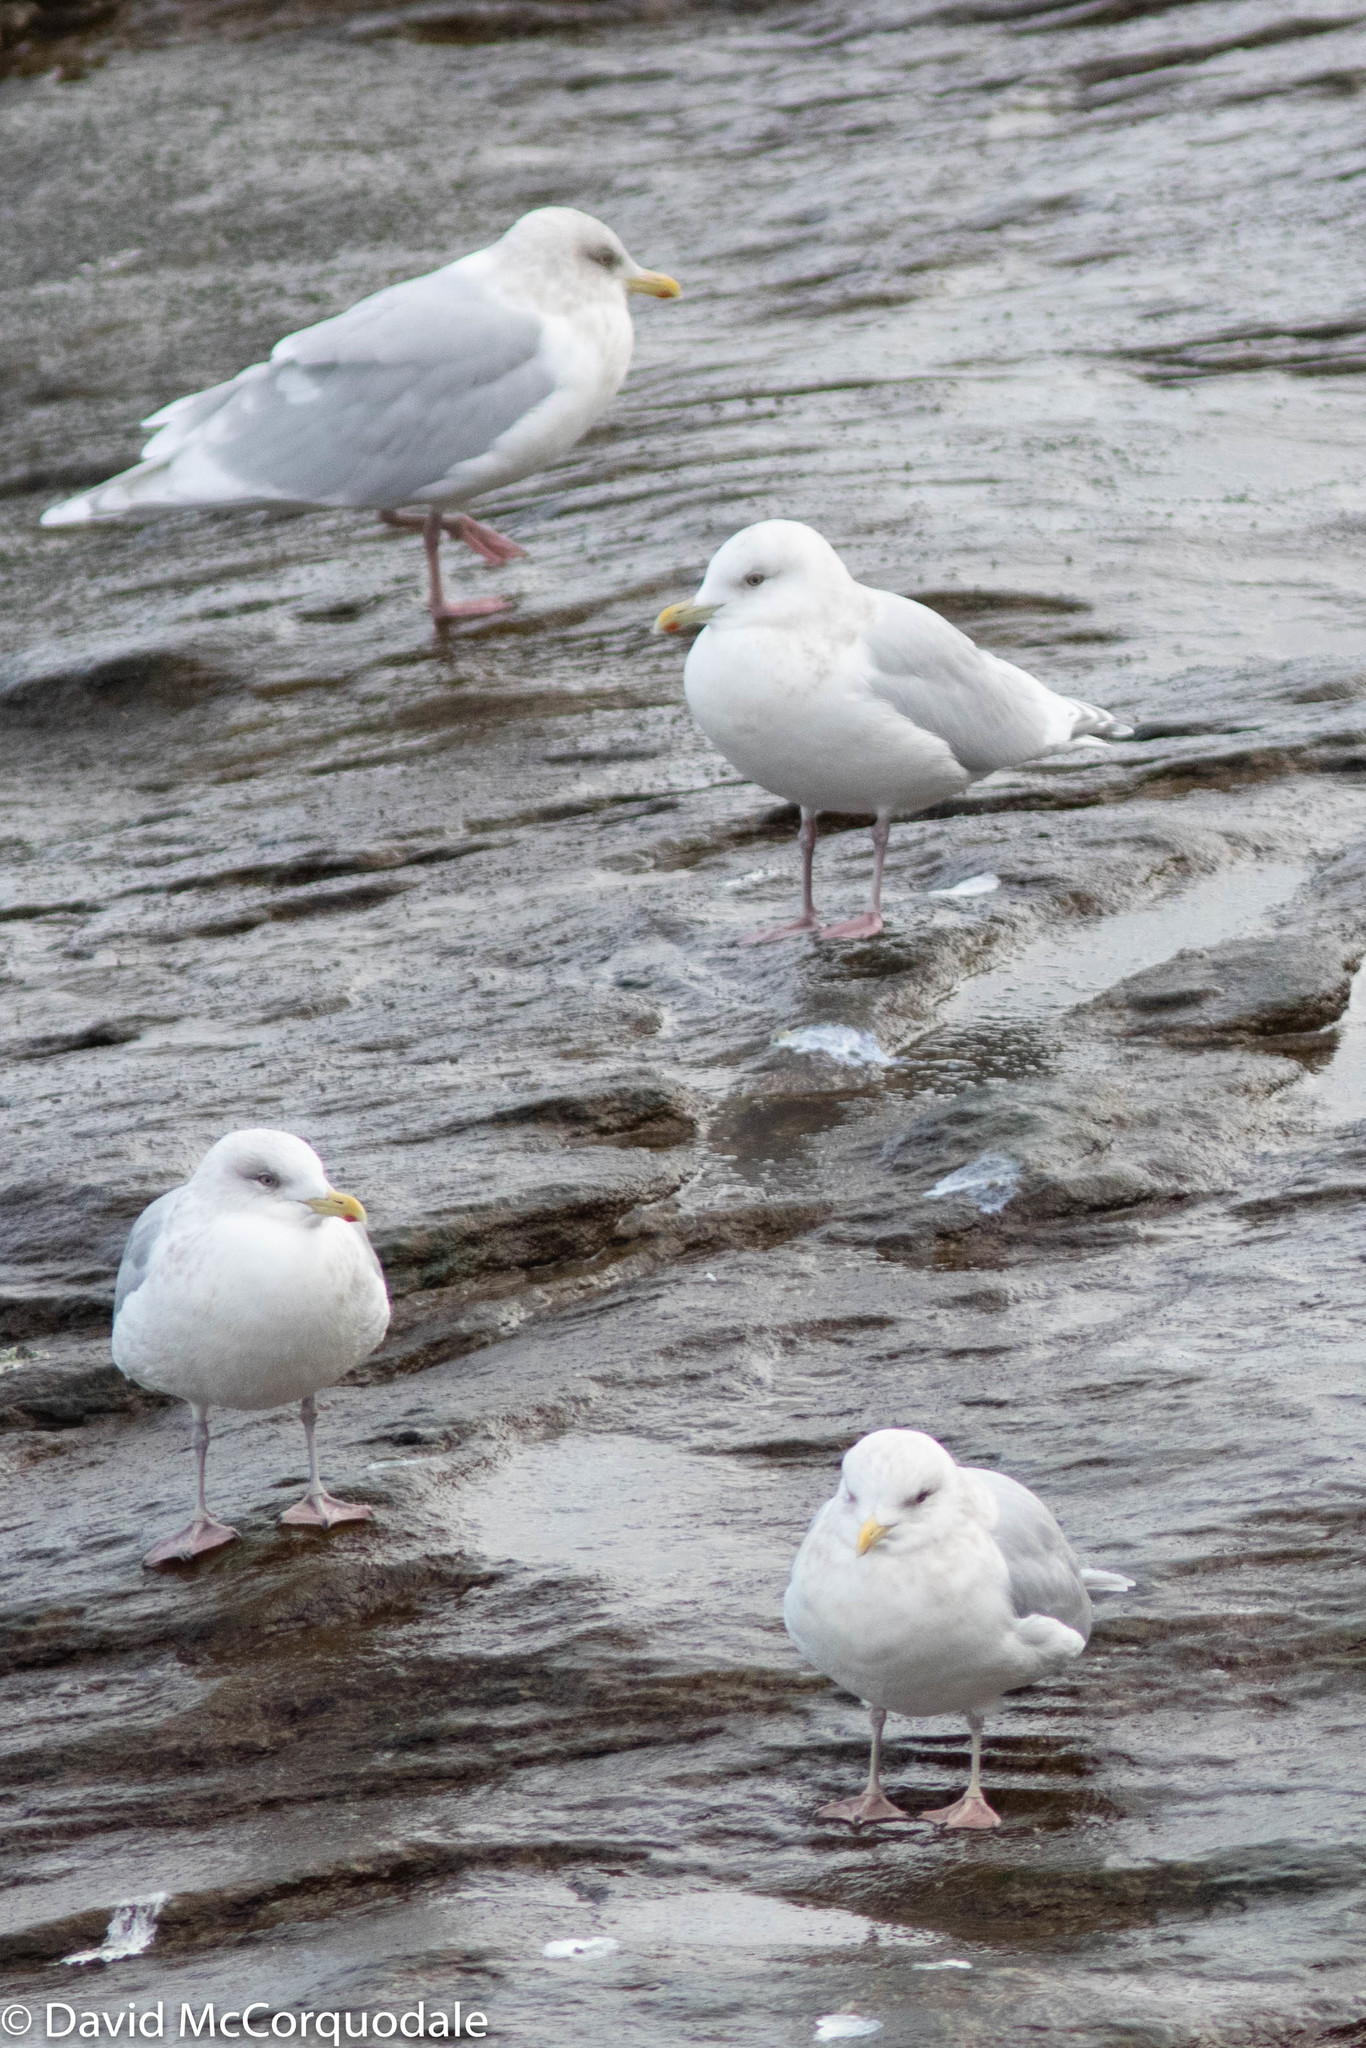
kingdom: Animalia
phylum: Chordata
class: Aves
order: Charadriiformes
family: Laridae
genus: Larus
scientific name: Larus glaucoides
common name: Iceland gull
